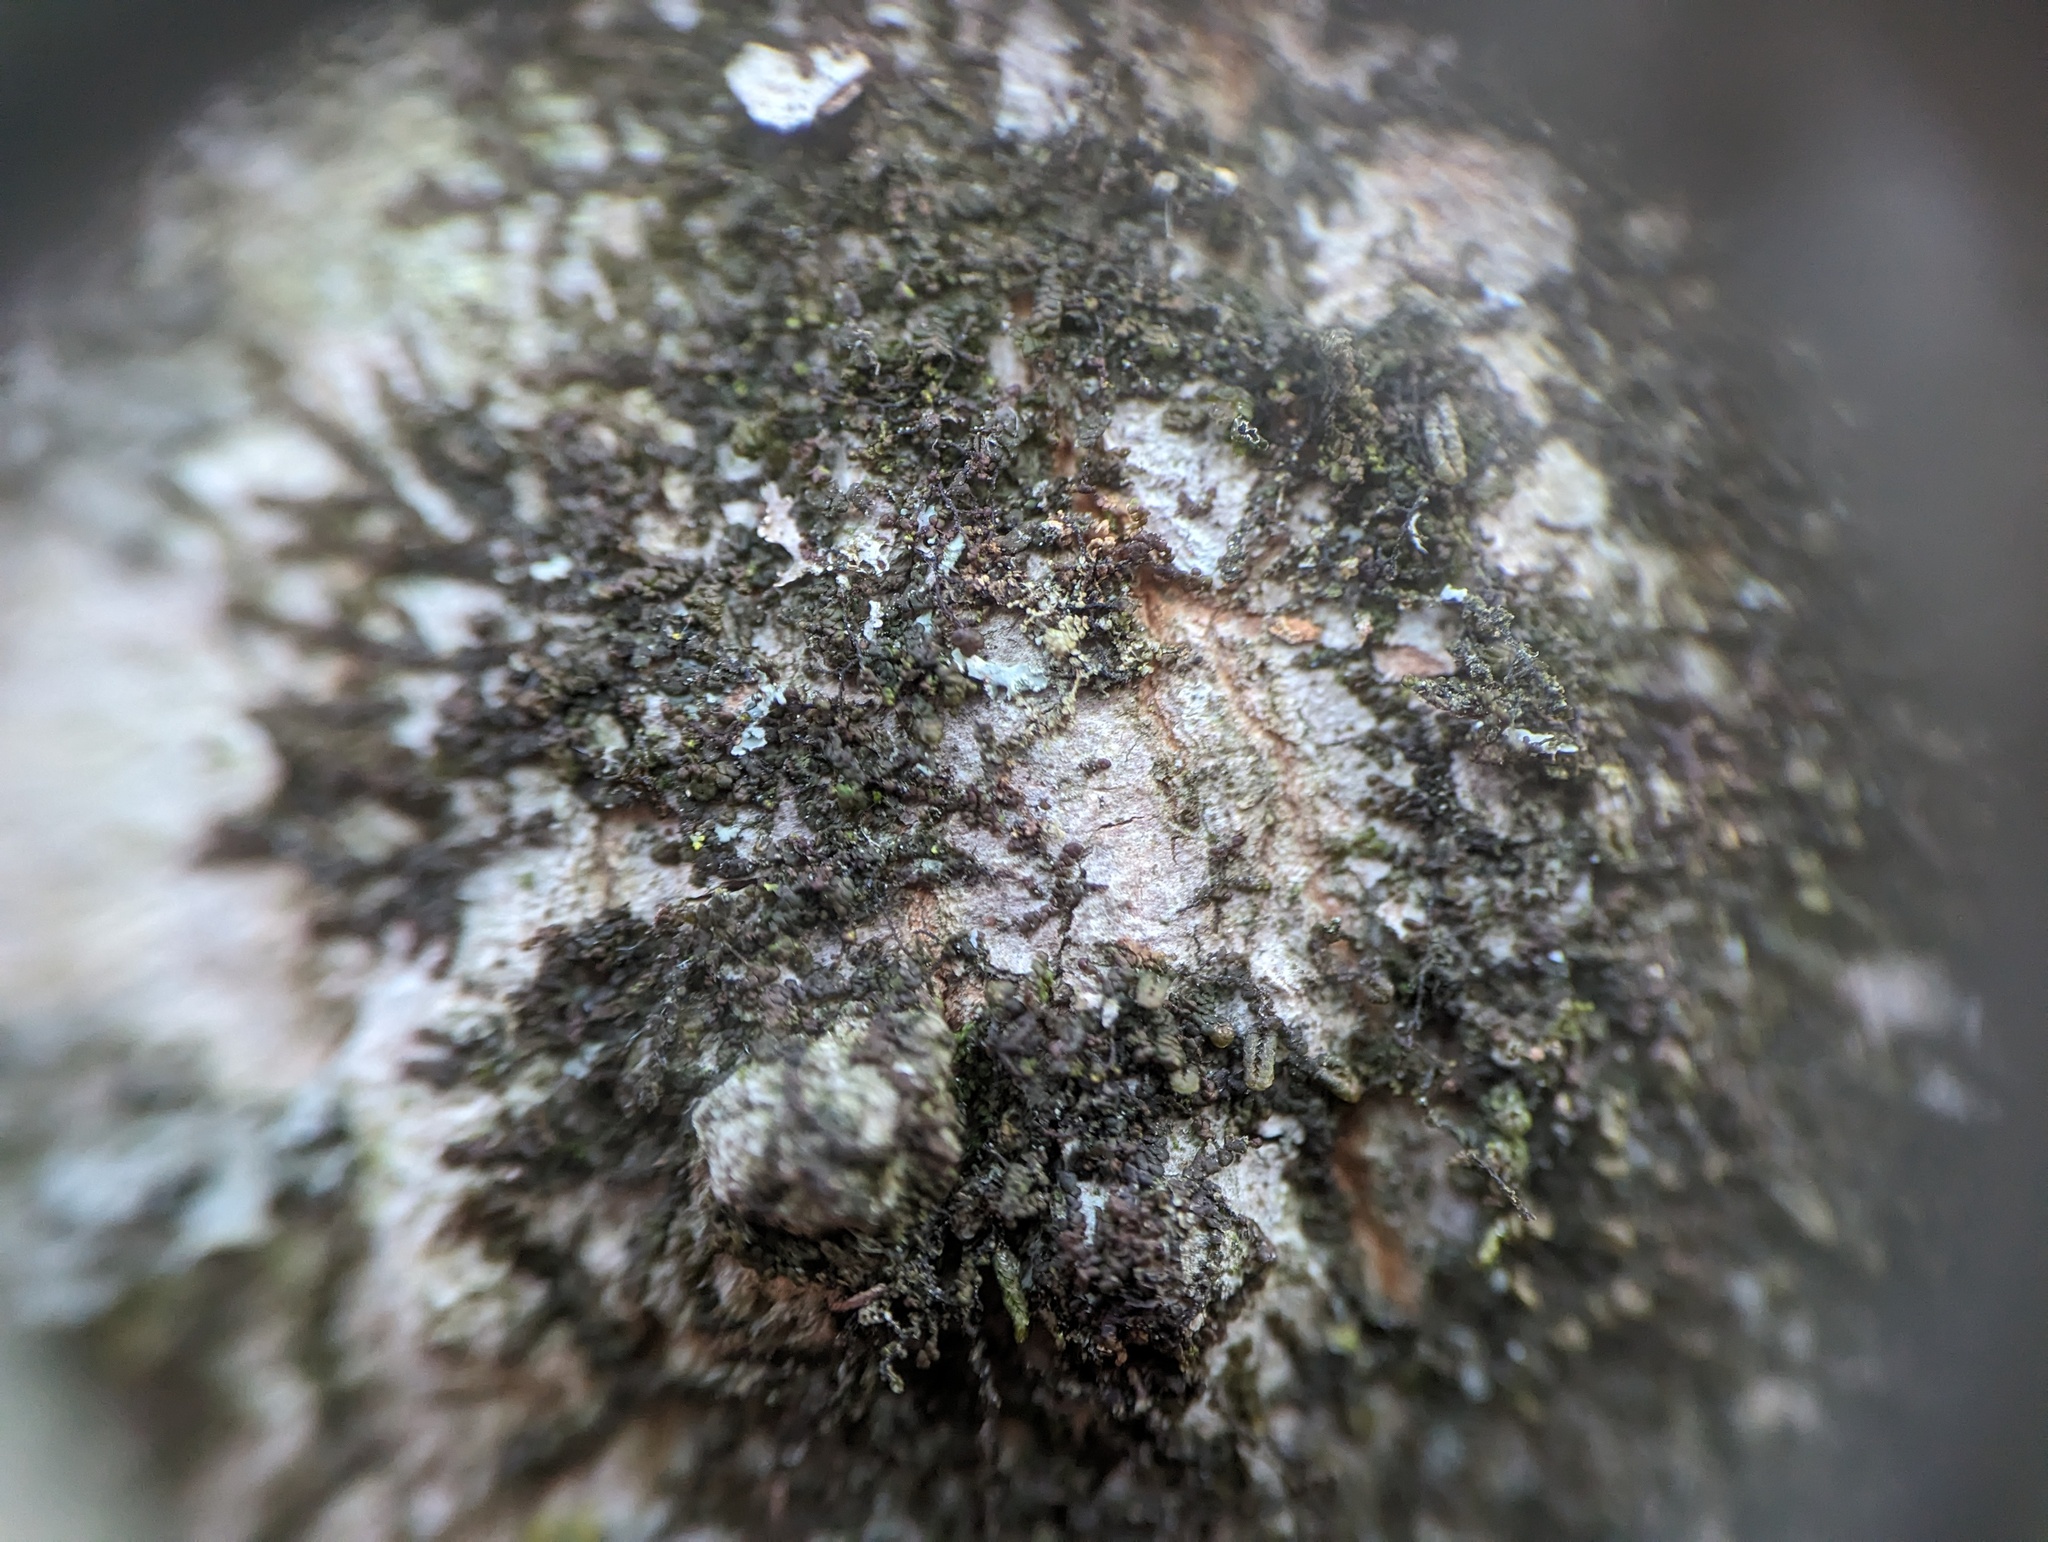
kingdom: Plantae
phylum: Marchantiophyta
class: Jungermanniopsida
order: Porellales
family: Frullaniaceae
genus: Frullania
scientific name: Frullania eboracensis
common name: New york scalewort
